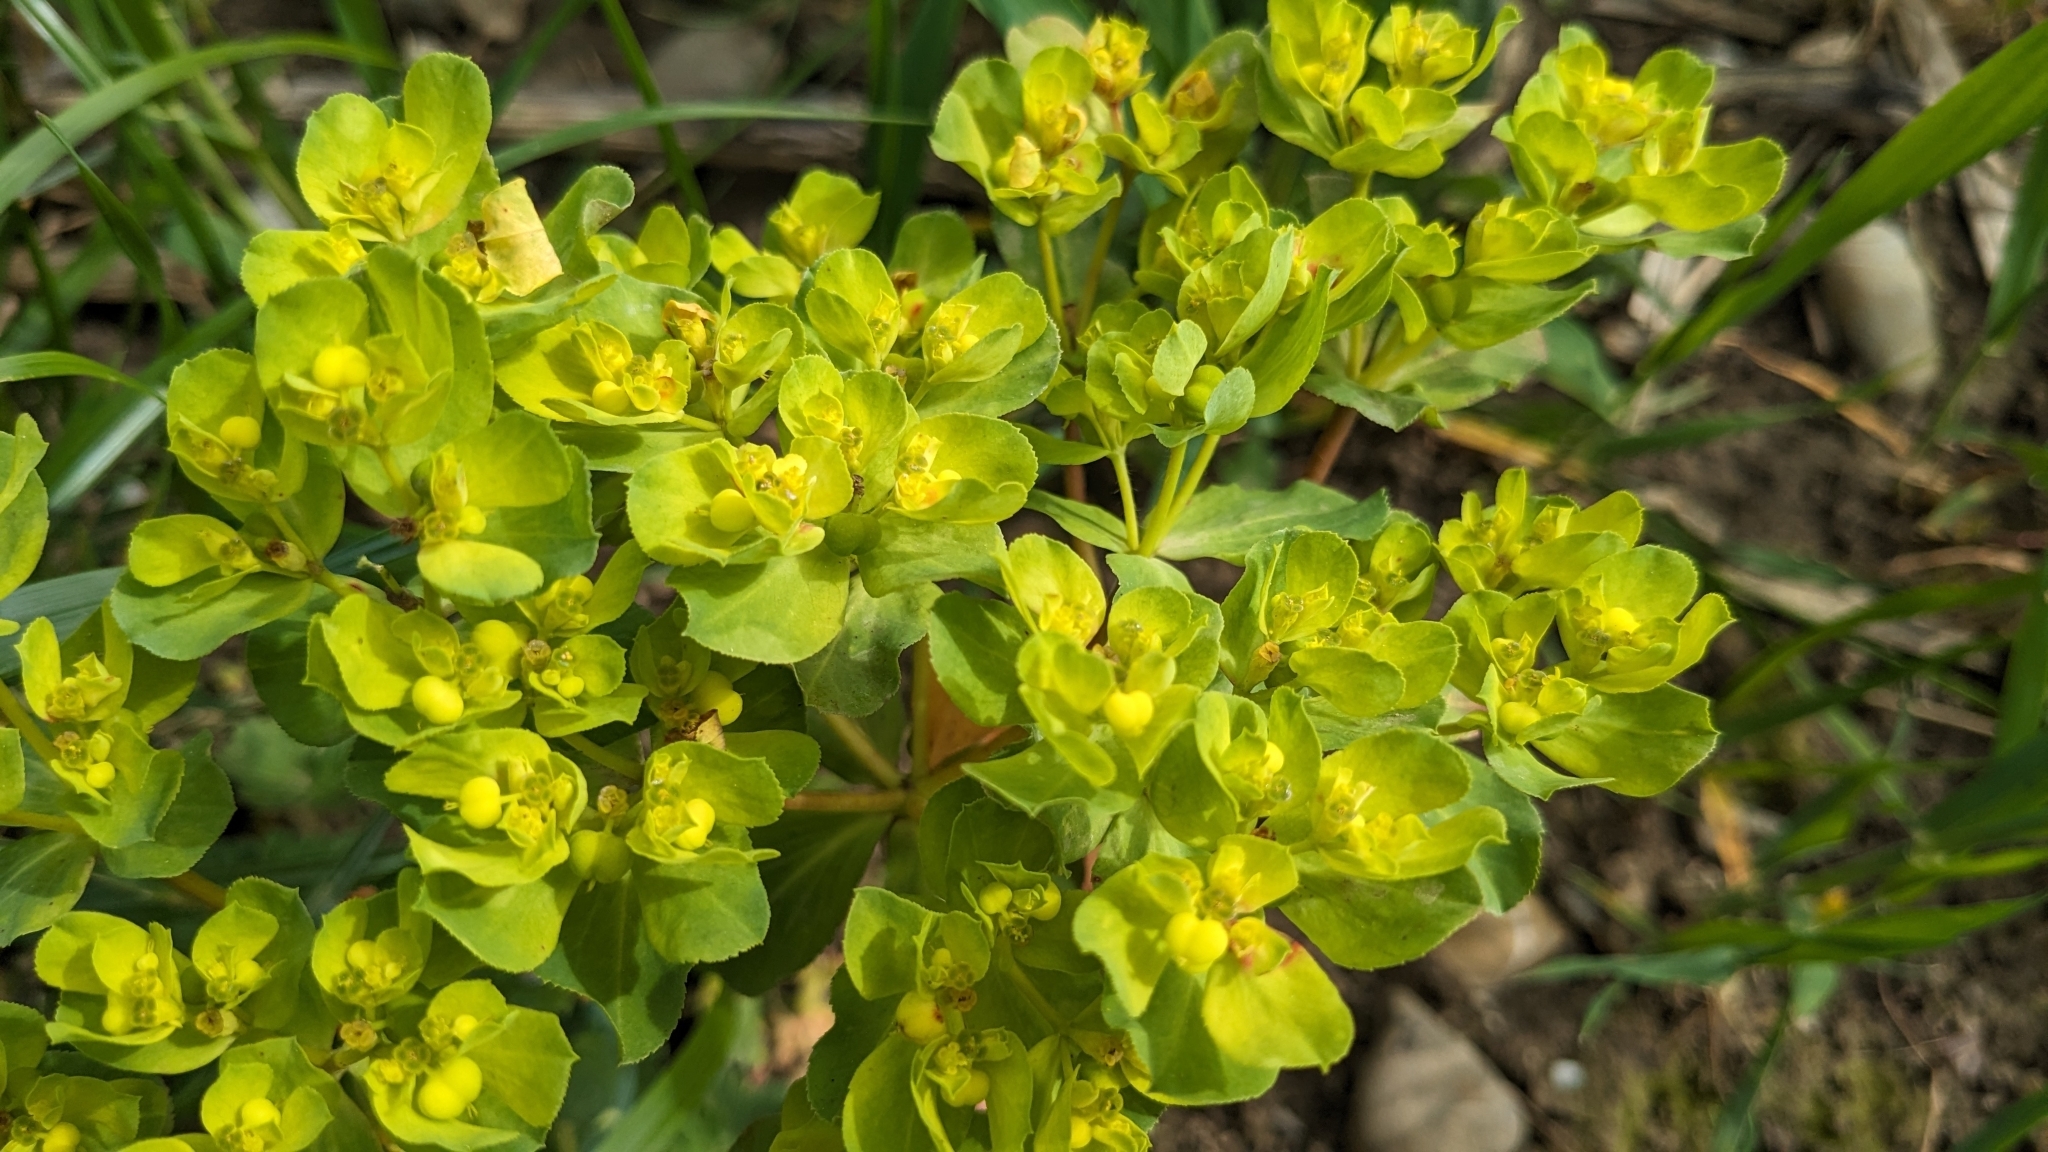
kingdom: Plantae
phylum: Tracheophyta
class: Magnoliopsida
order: Malpighiales
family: Euphorbiaceae
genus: Euphorbia
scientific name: Euphorbia helioscopia
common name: Sun spurge
